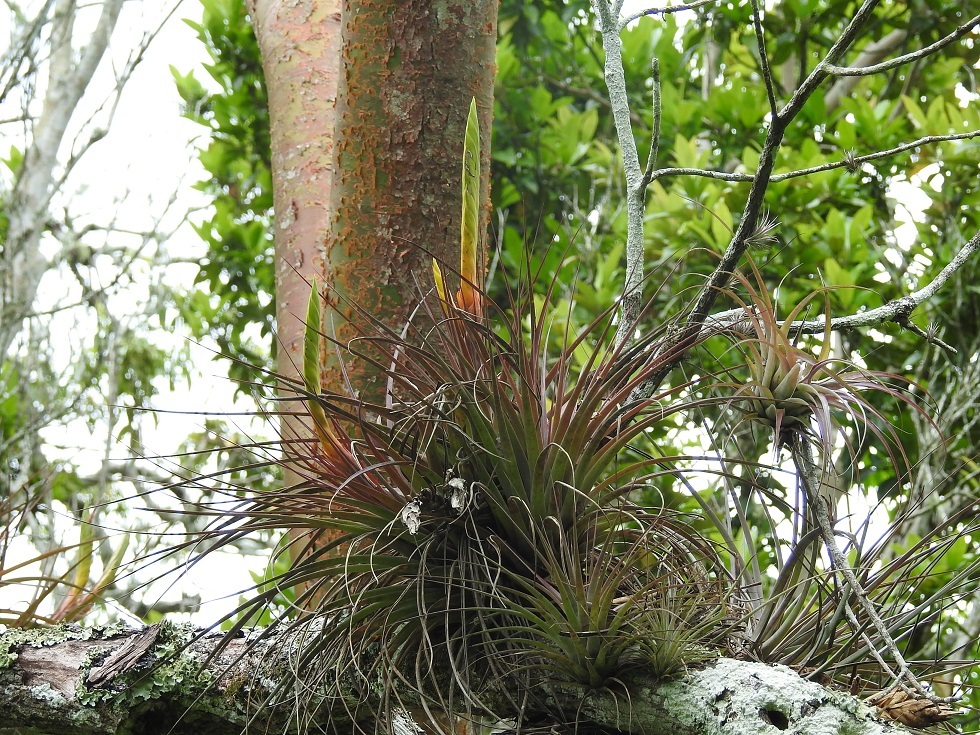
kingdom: Plantae
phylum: Tracheophyta
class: Liliopsida
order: Poales
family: Bromeliaceae
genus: Tillandsia
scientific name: Tillandsia flavobracteata
